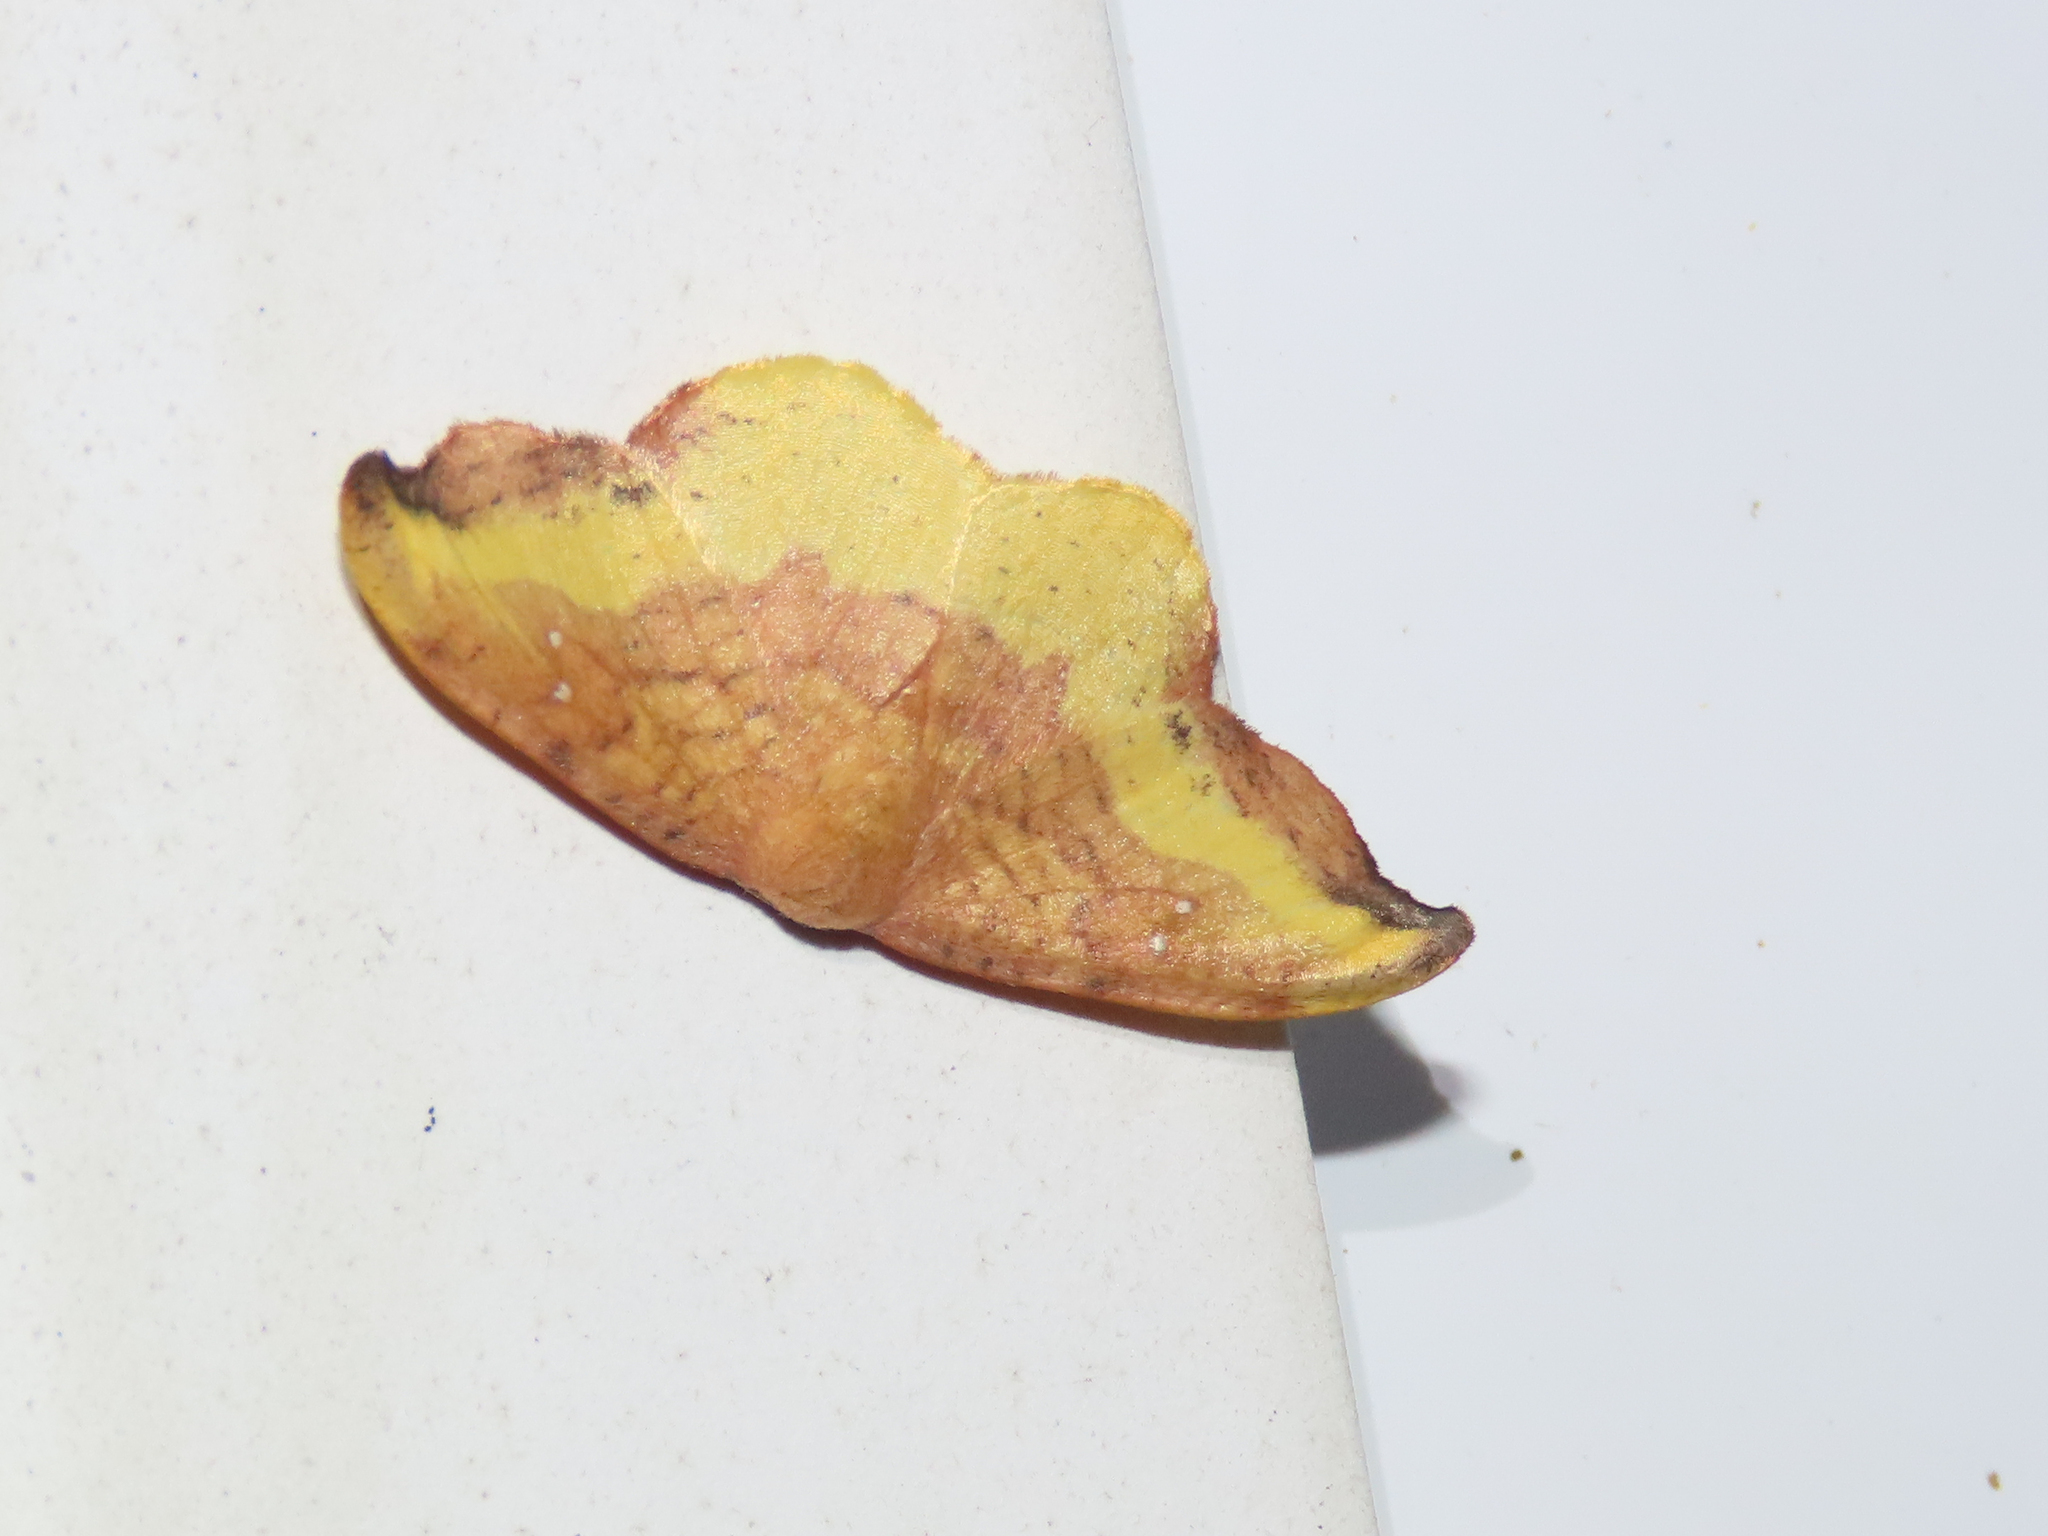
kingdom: Animalia
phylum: Arthropoda
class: Insecta
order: Lepidoptera
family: Drepanidae
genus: Oreta
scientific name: Oreta rosea
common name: Rose hooktip
